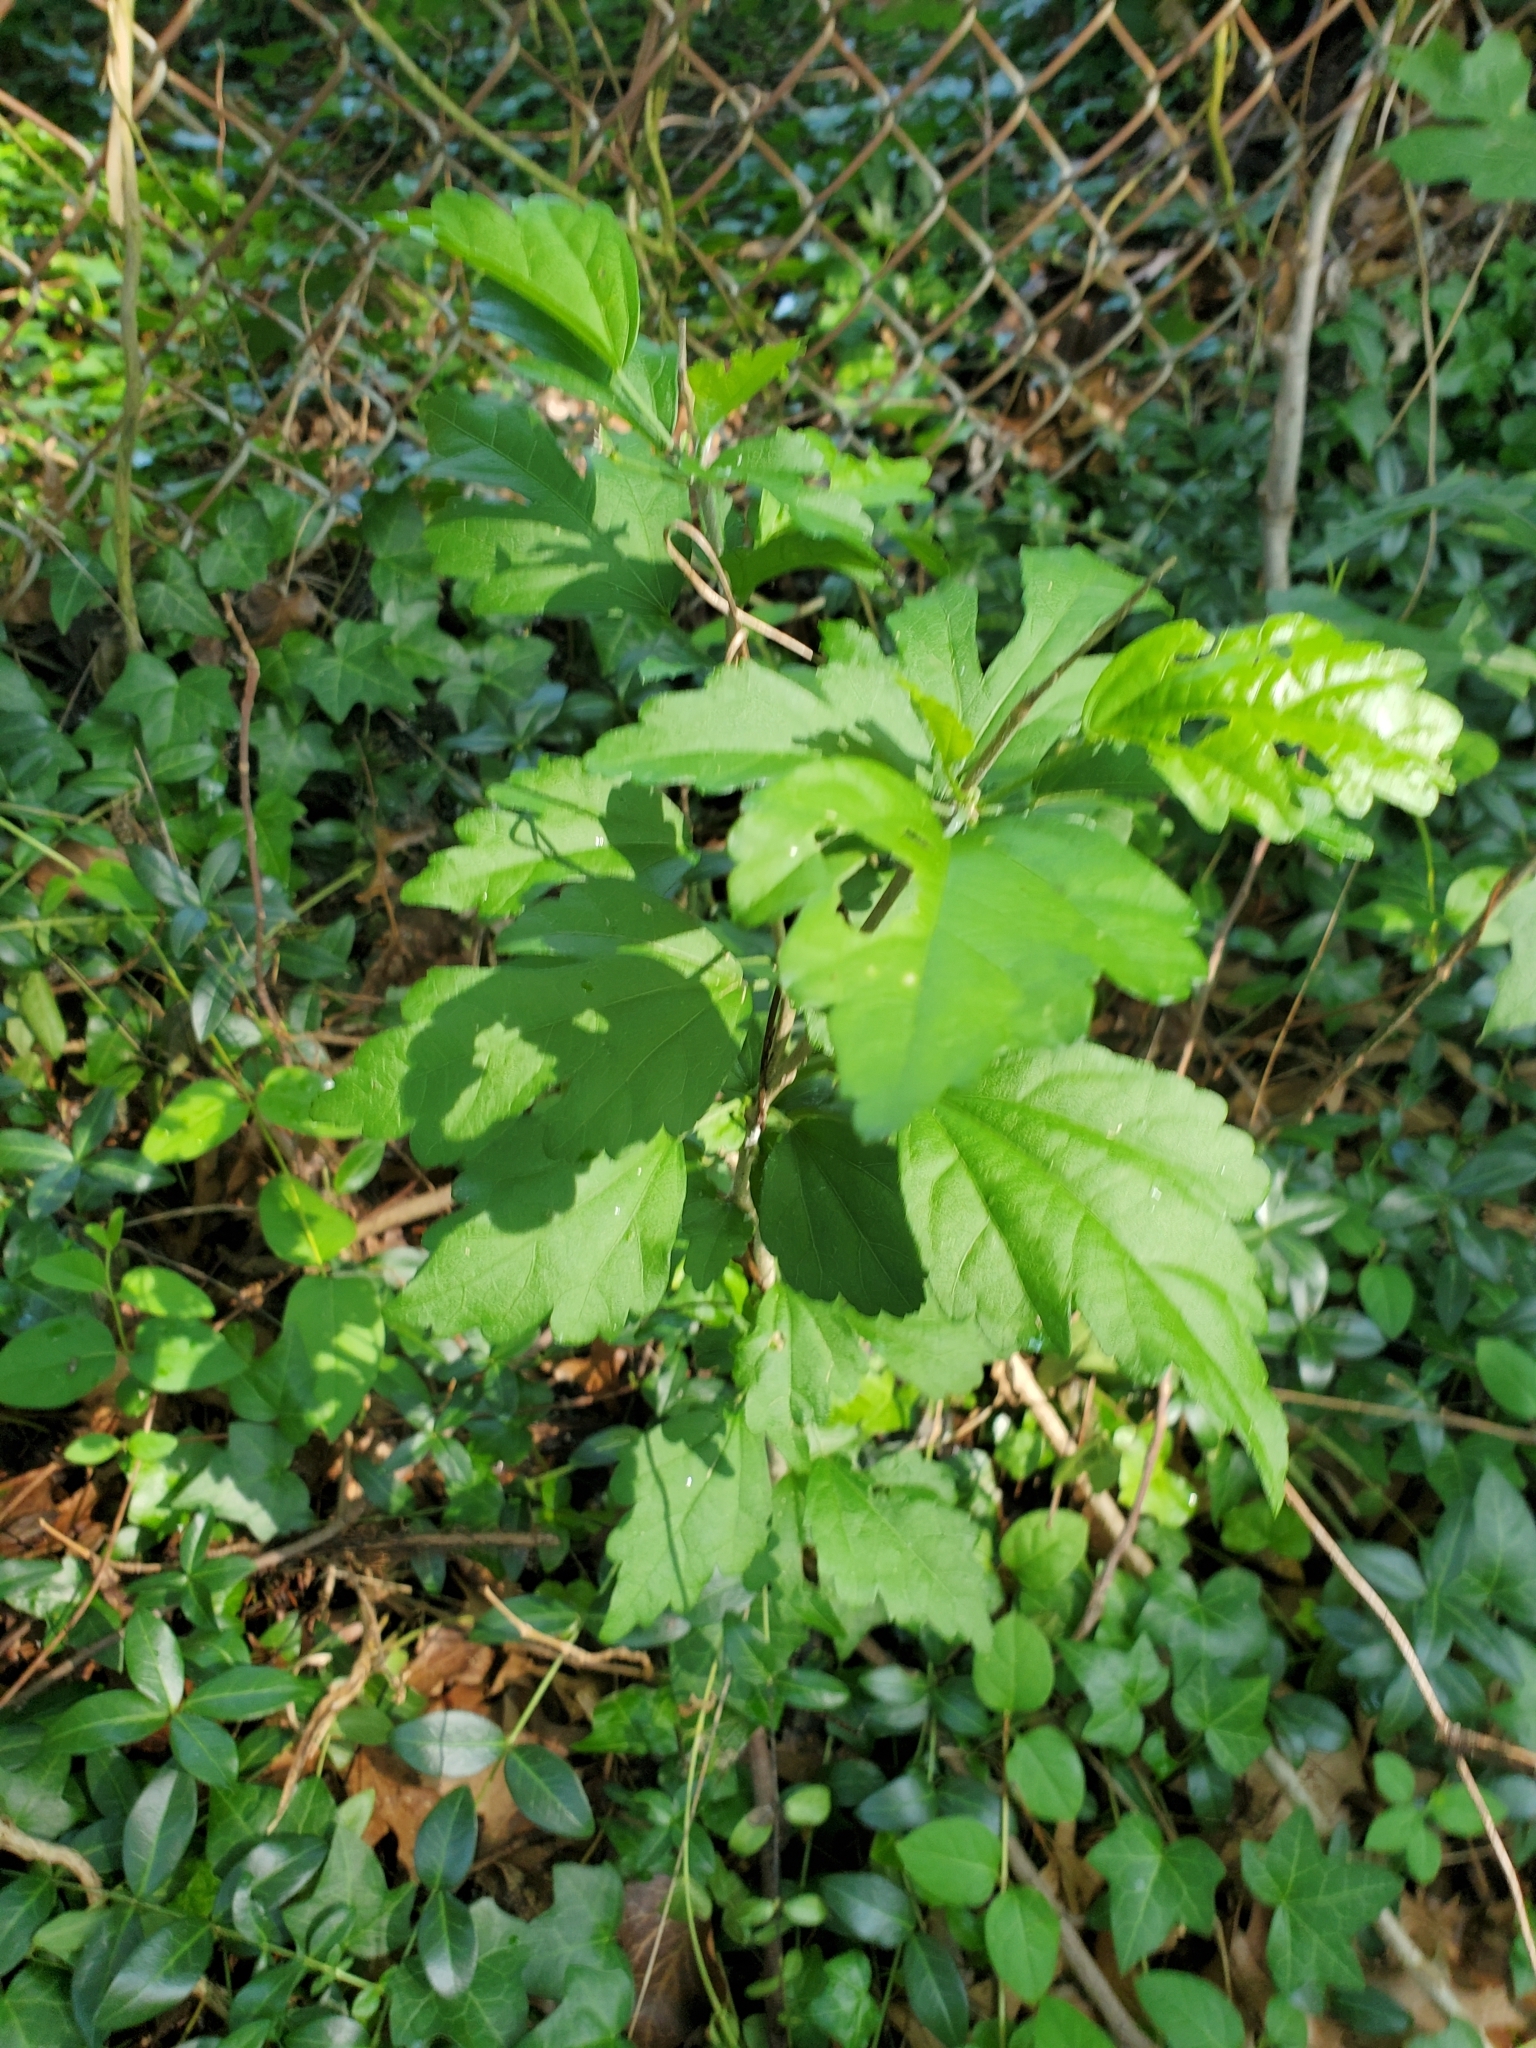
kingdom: Plantae
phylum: Tracheophyta
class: Magnoliopsida
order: Malvales
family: Malvaceae
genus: Hibiscus
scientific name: Hibiscus syriacus
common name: Syrian ketmia
